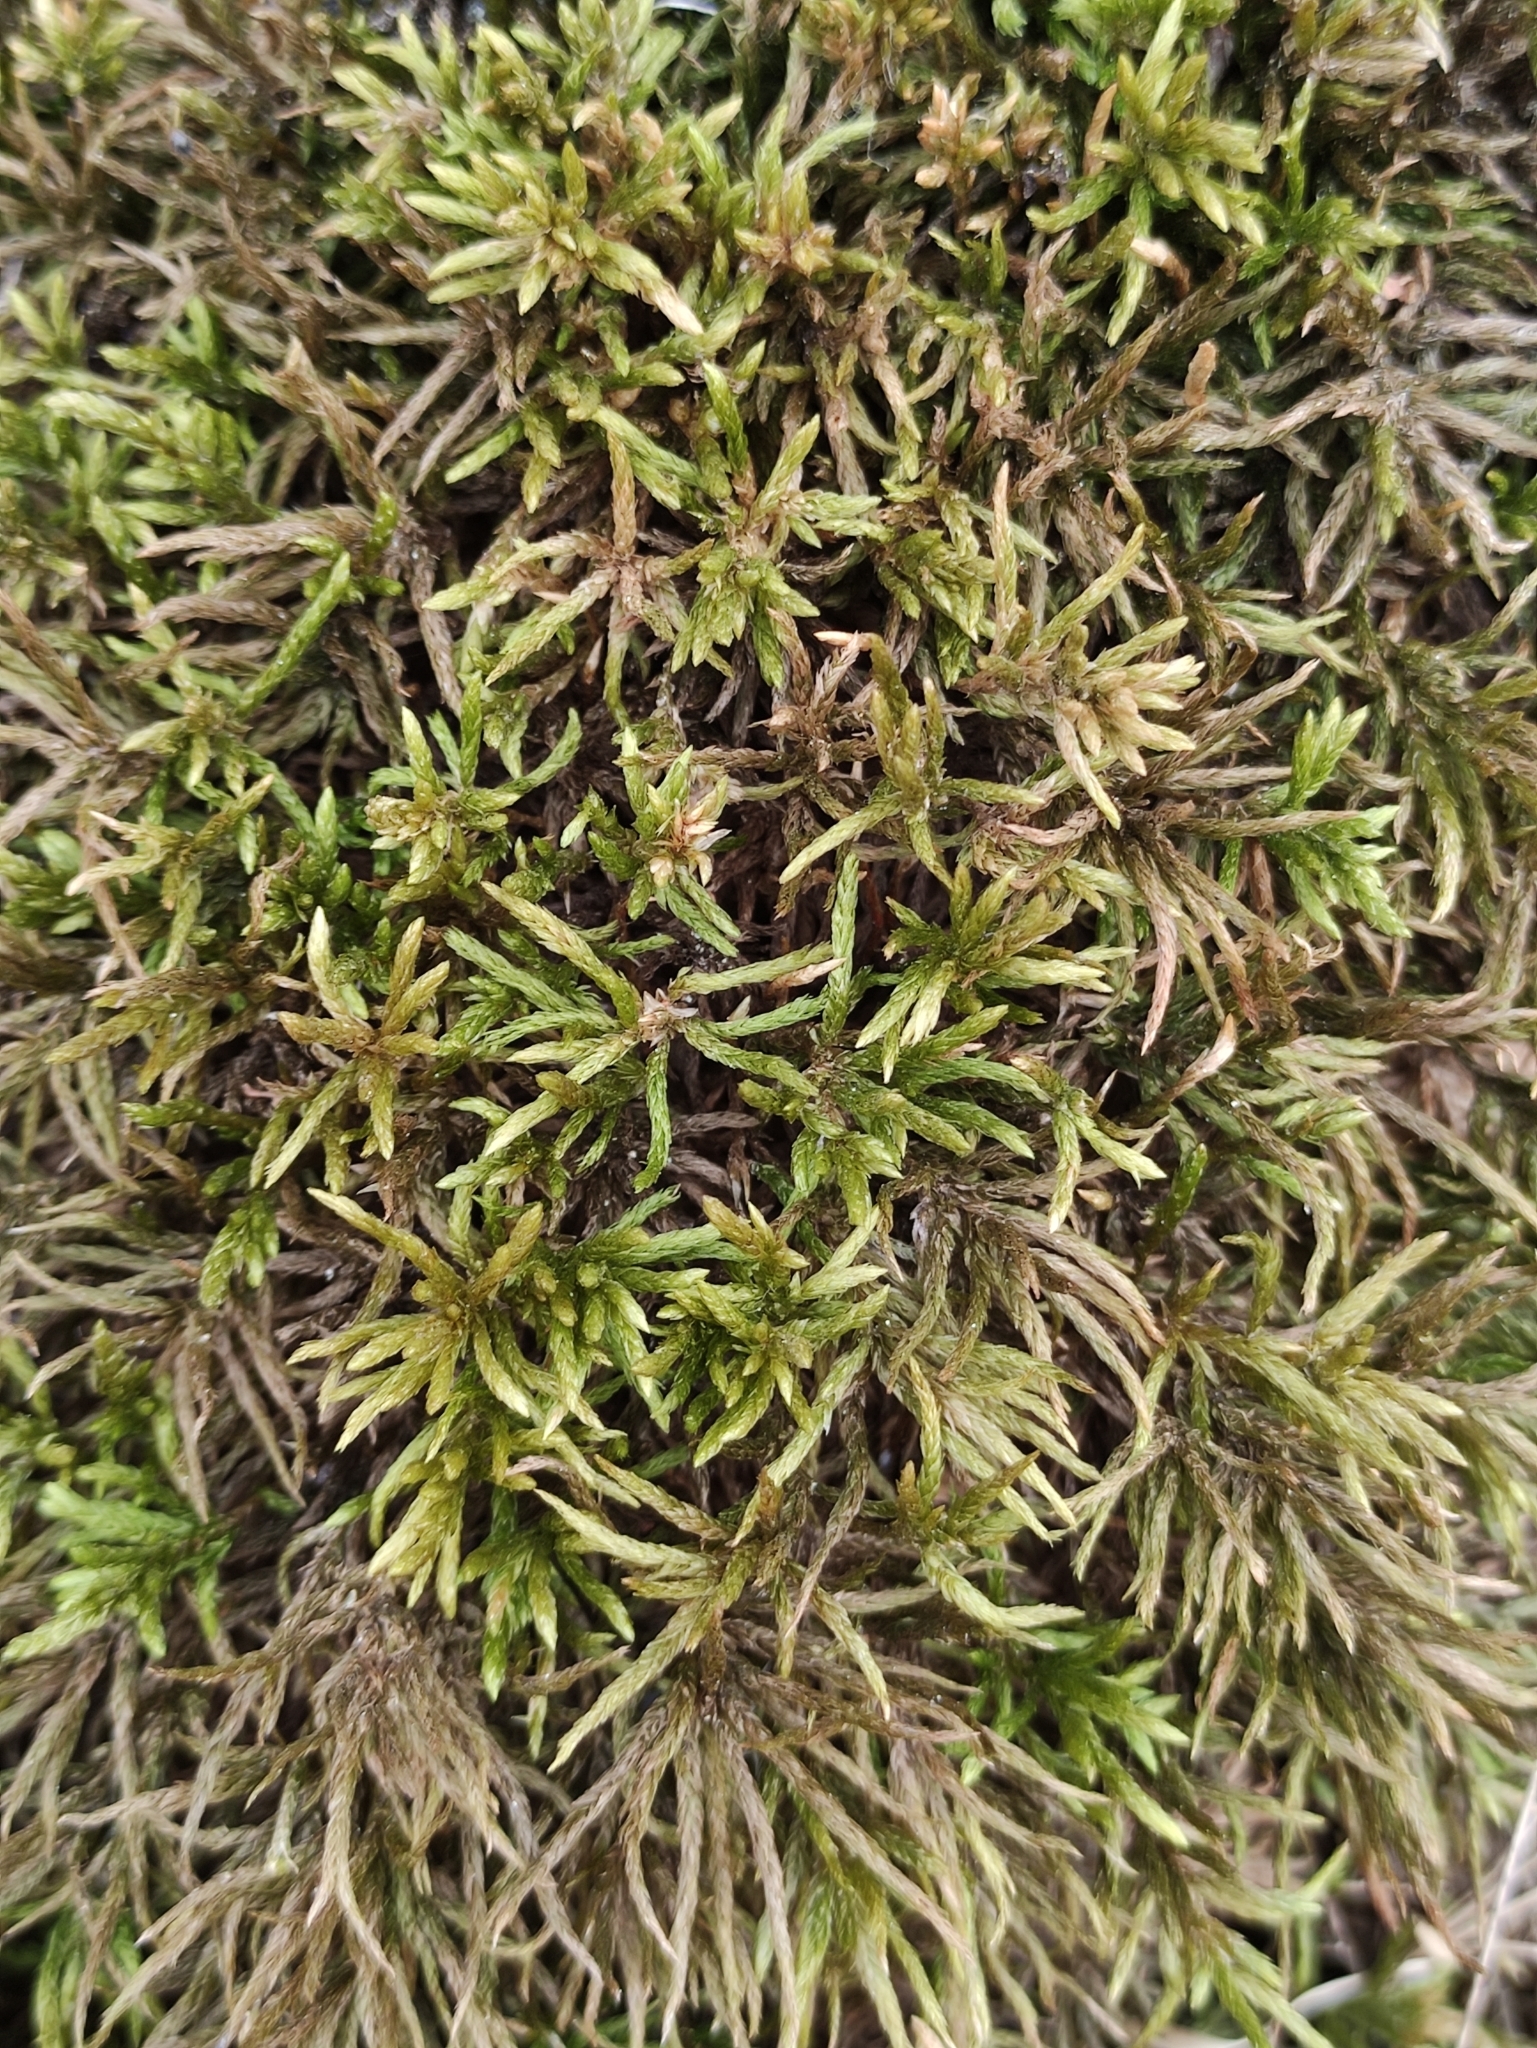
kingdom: Plantae
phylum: Bryophyta
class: Bryopsida
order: Hypnales
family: Climaciaceae
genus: Climacium
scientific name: Climacium dendroides
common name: Northern tree moss
